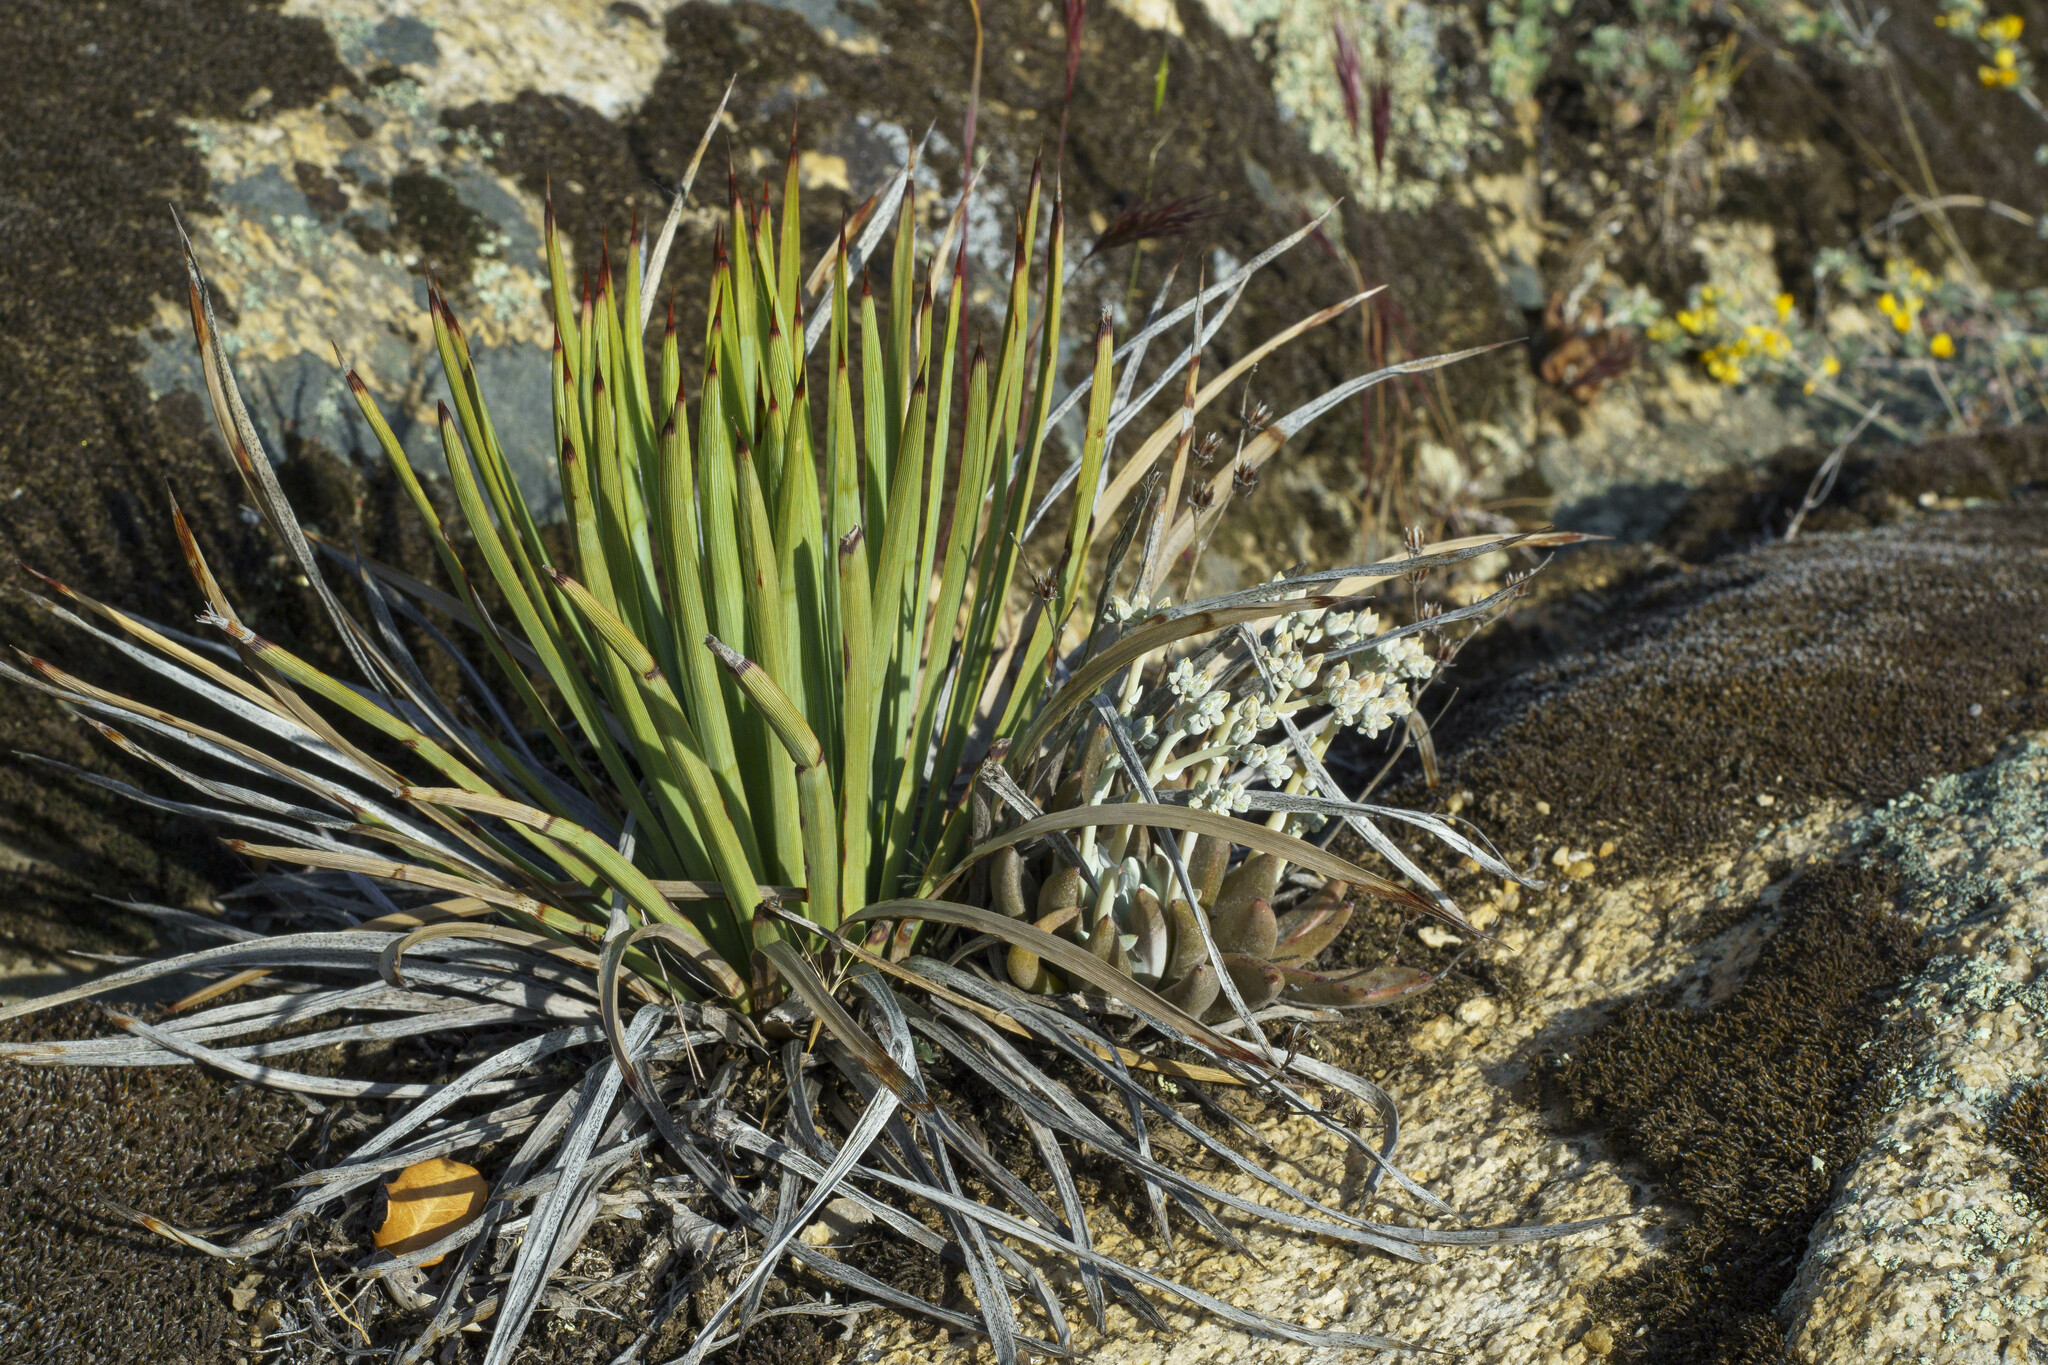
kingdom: Plantae
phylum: Tracheophyta
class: Magnoliopsida
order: Saxifragales
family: Crassulaceae
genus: Dudleya
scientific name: Dudleya abramsii
